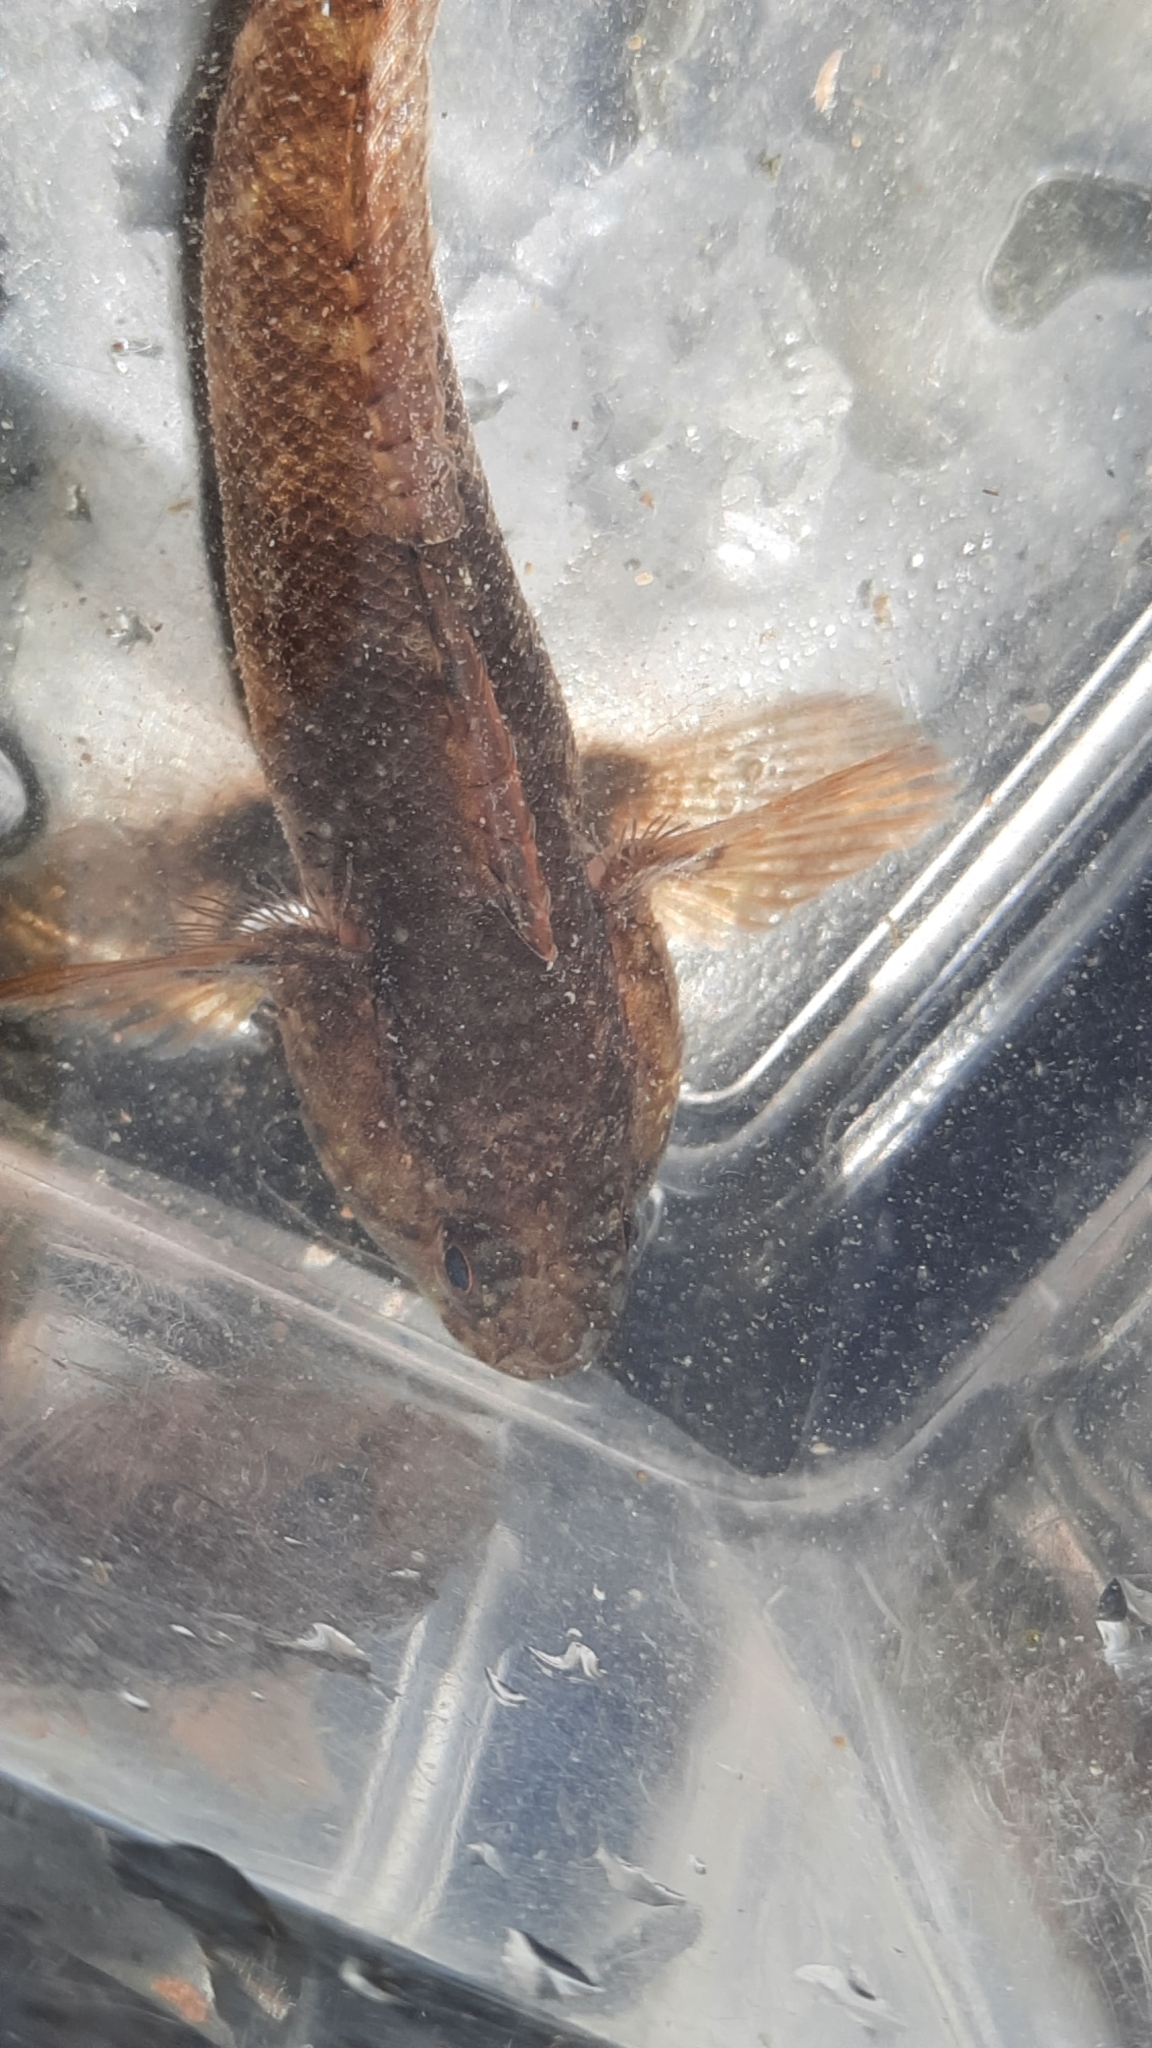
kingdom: Animalia
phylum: Chordata
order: Perciformes
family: Gobiidae
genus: Gobius
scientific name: Gobius paganellus
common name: Rock goby
